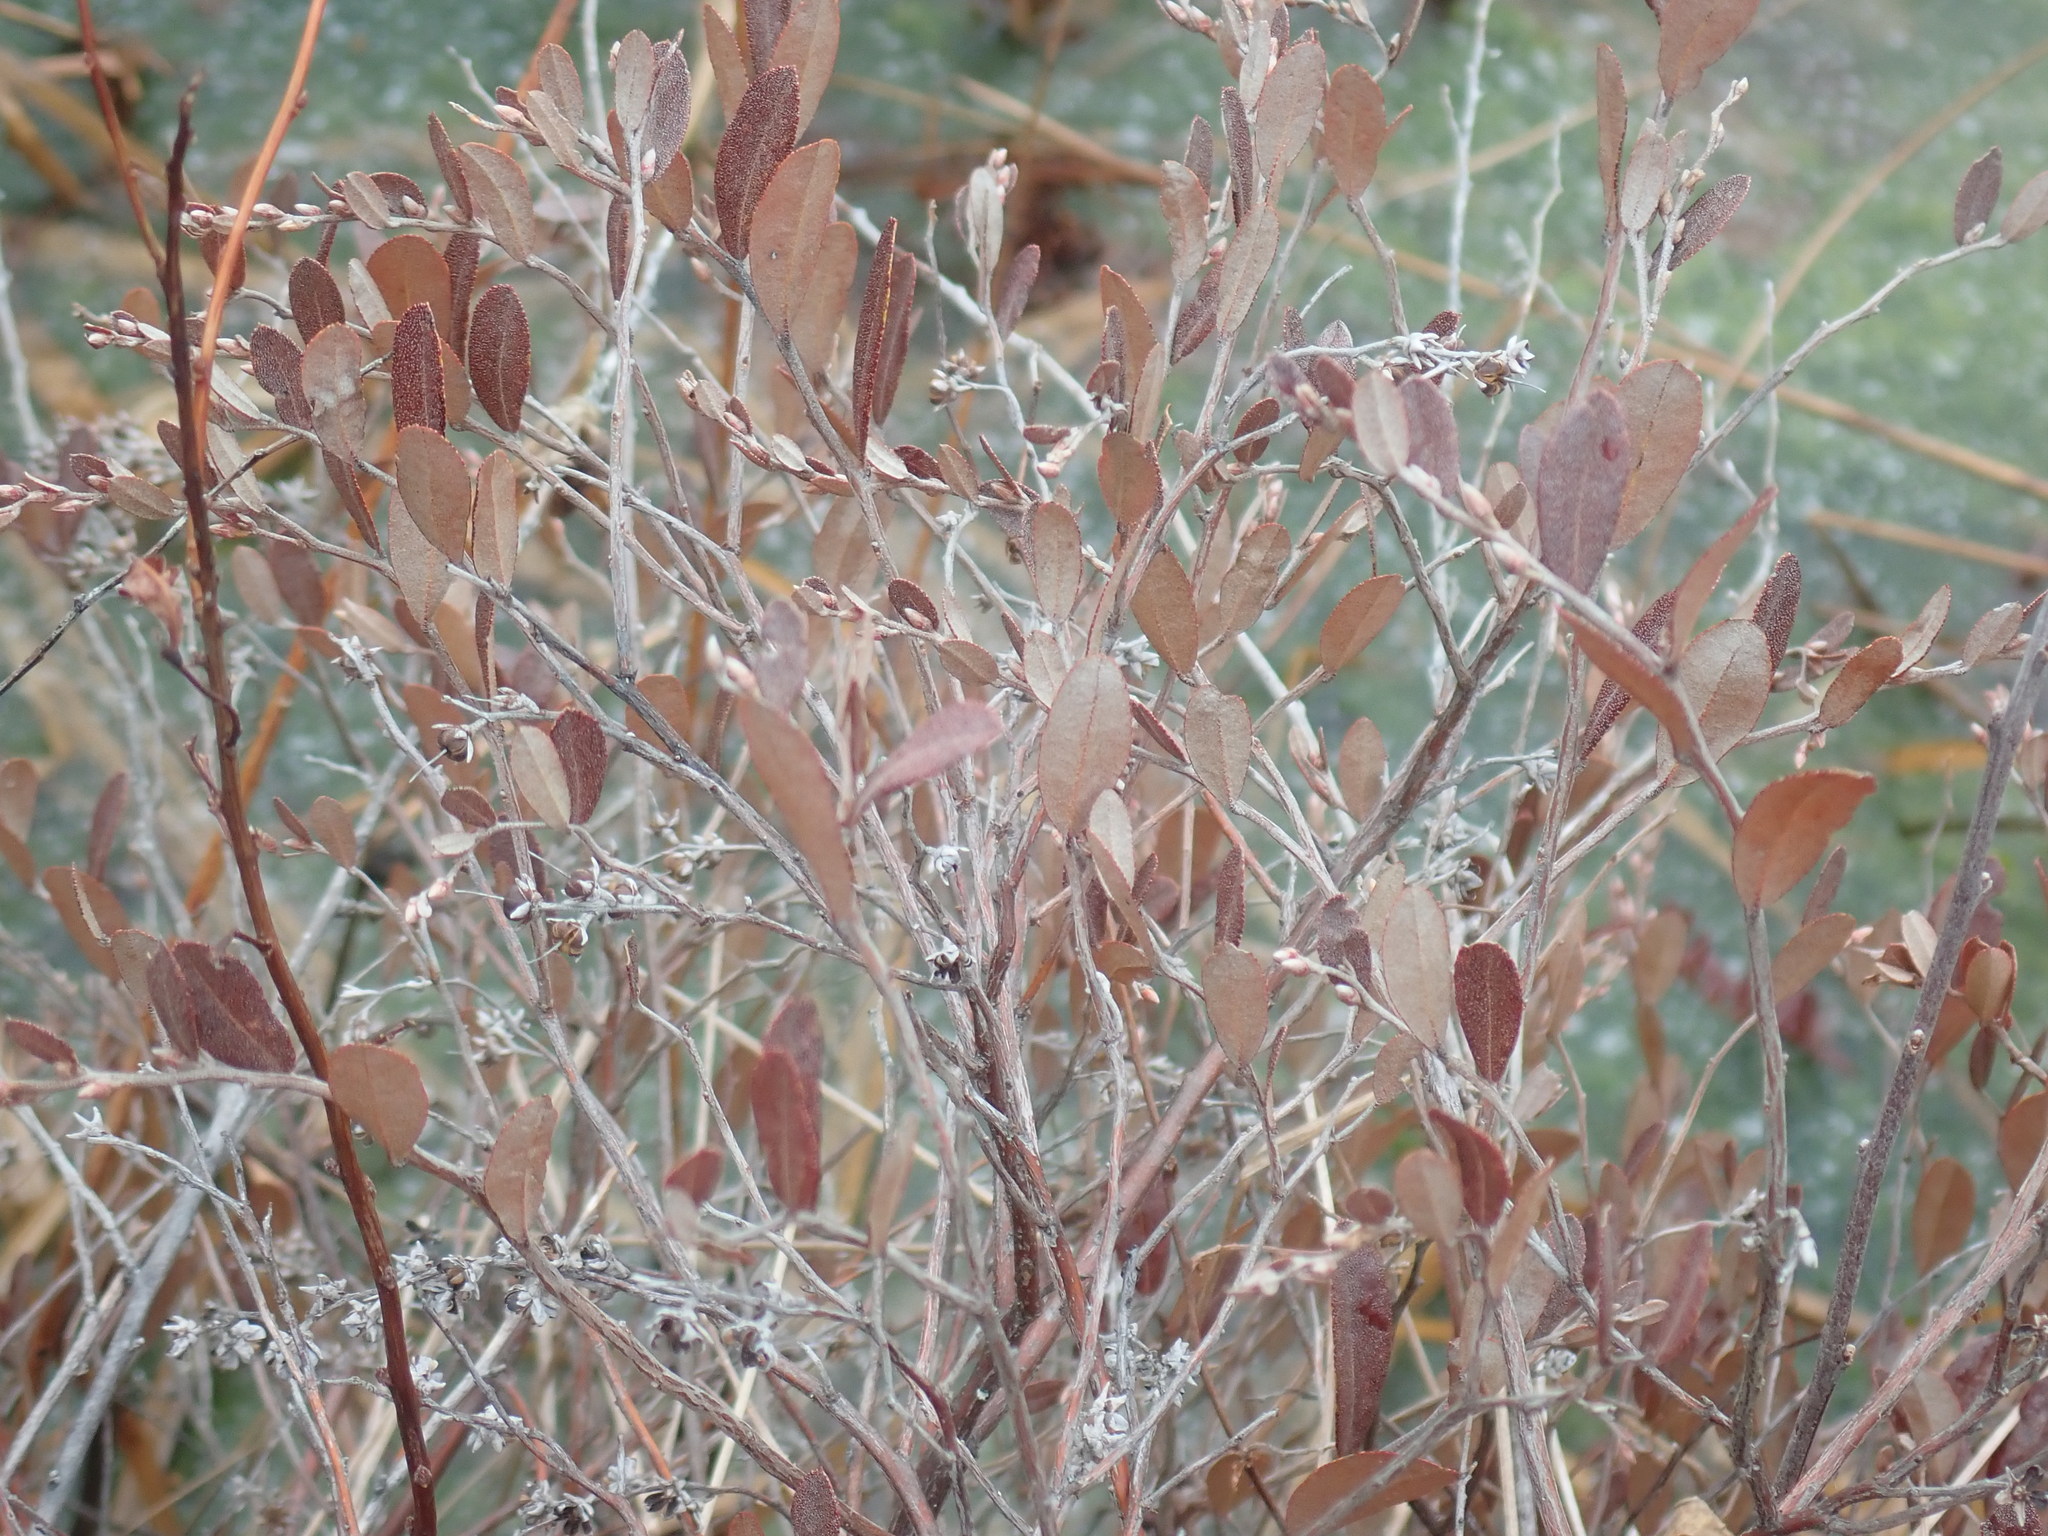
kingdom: Plantae
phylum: Tracheophyta
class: Magnoliopsida
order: Ericales
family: Ericaceae
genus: Chamaedaphne
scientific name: Chamaedaphne calyculata
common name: Leatherleaf
